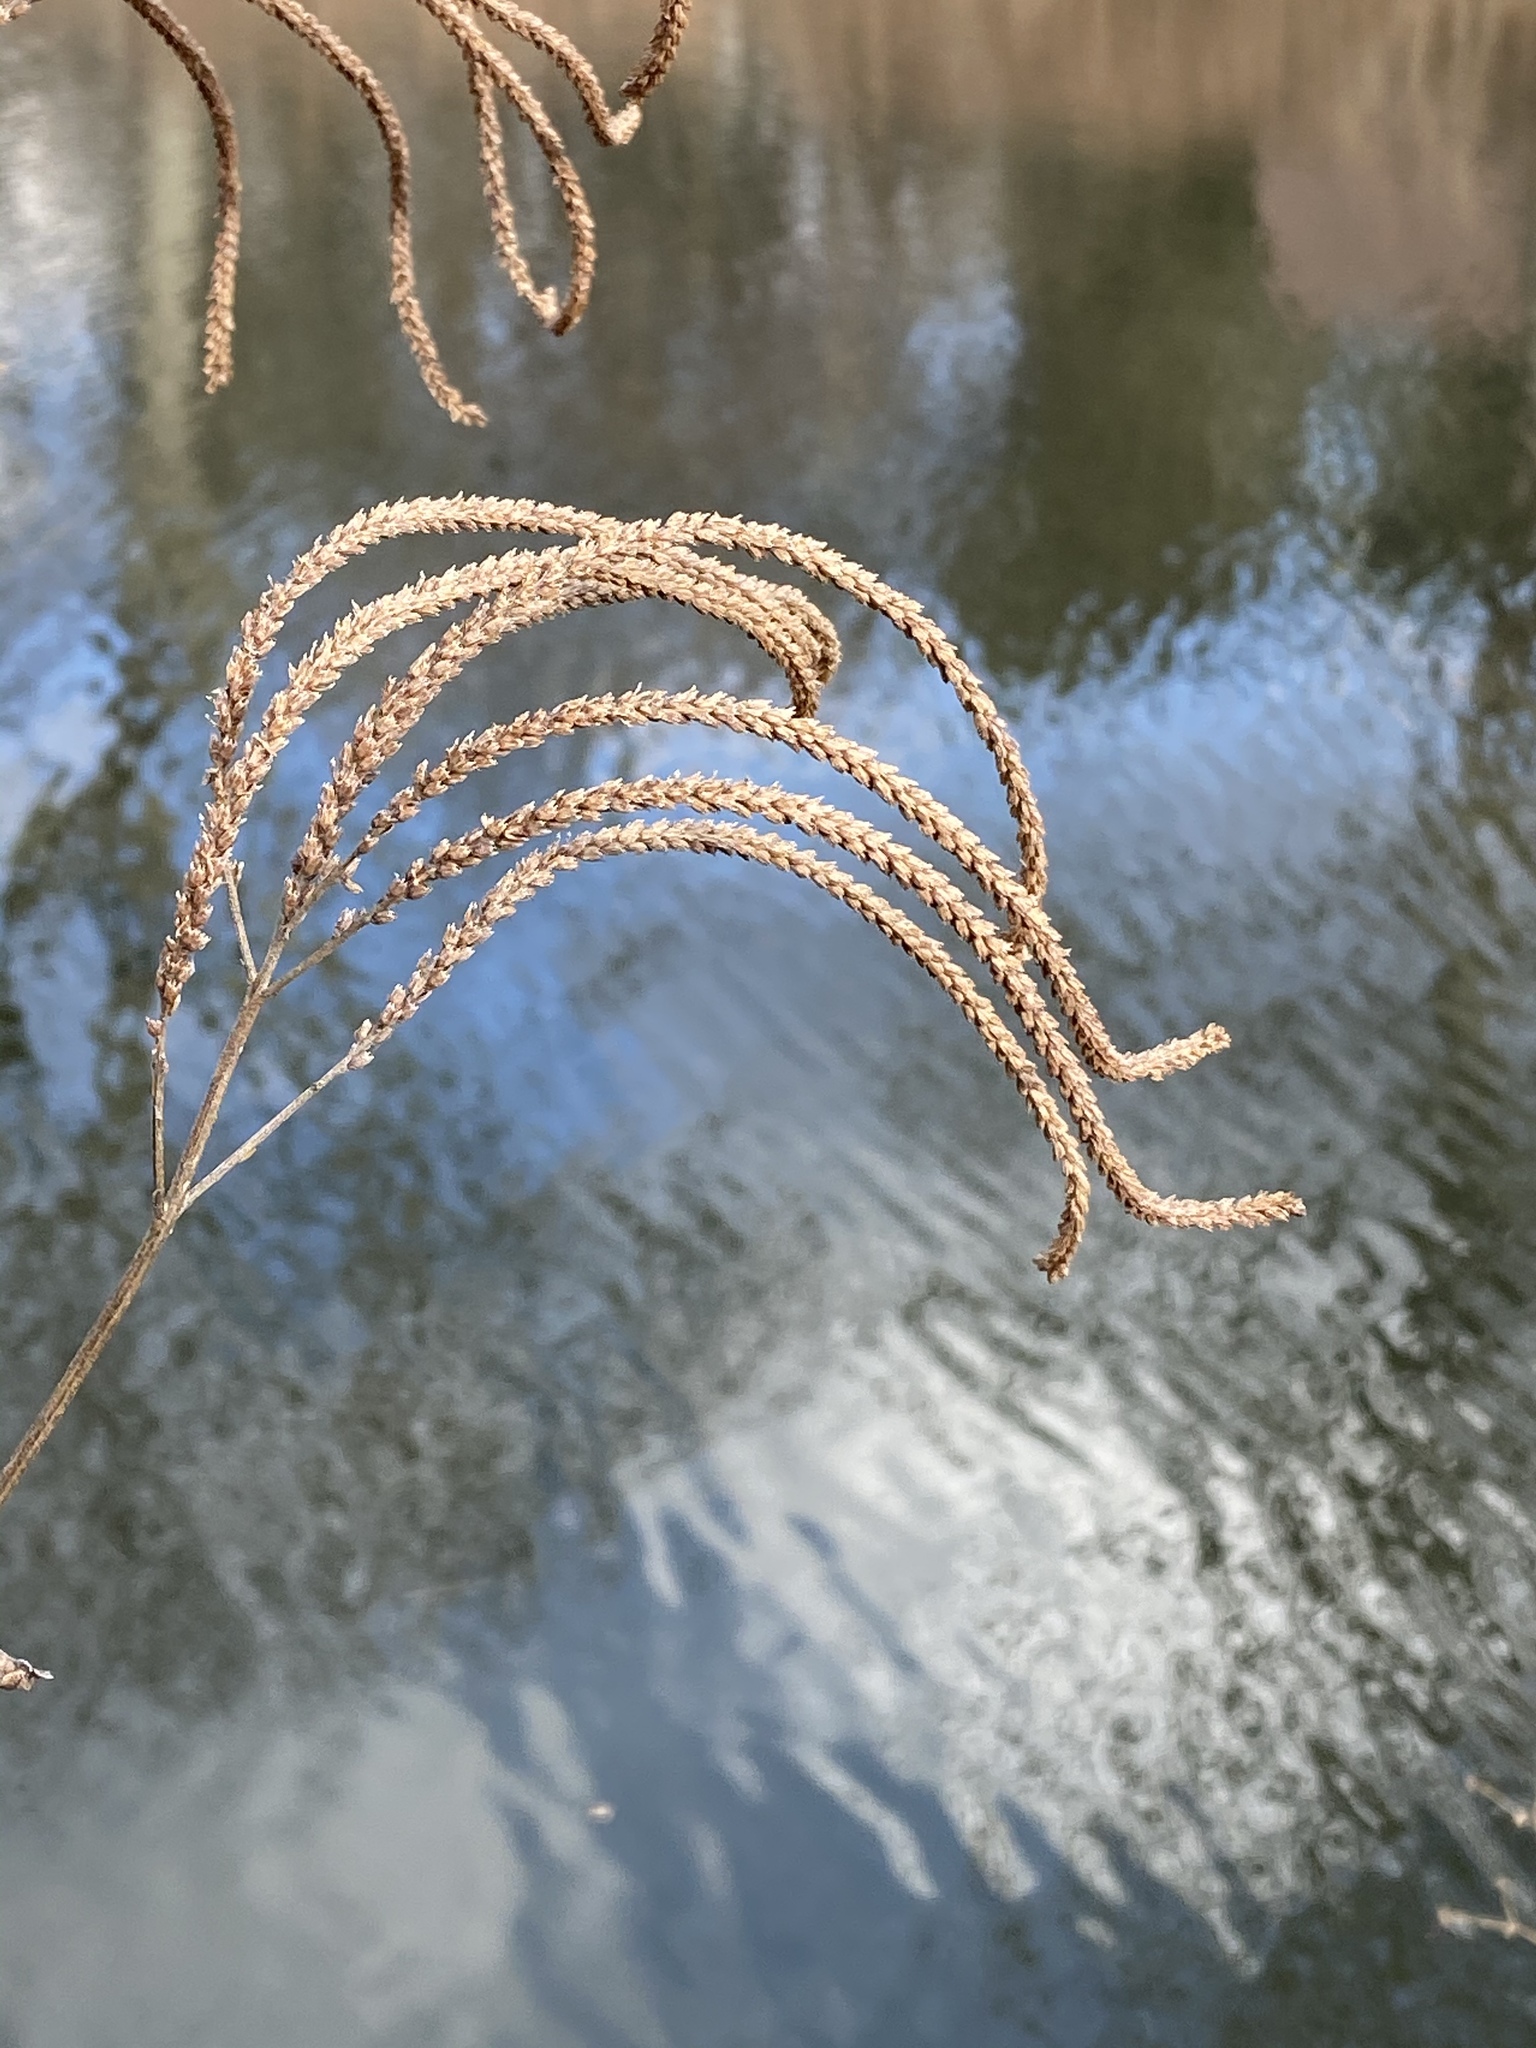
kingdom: Plantae
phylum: Tracheophyta
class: Magnoliopsida
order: Lamiales
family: Verbenaceae
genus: Verbena
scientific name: Verbena hastata
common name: American blue vervain
